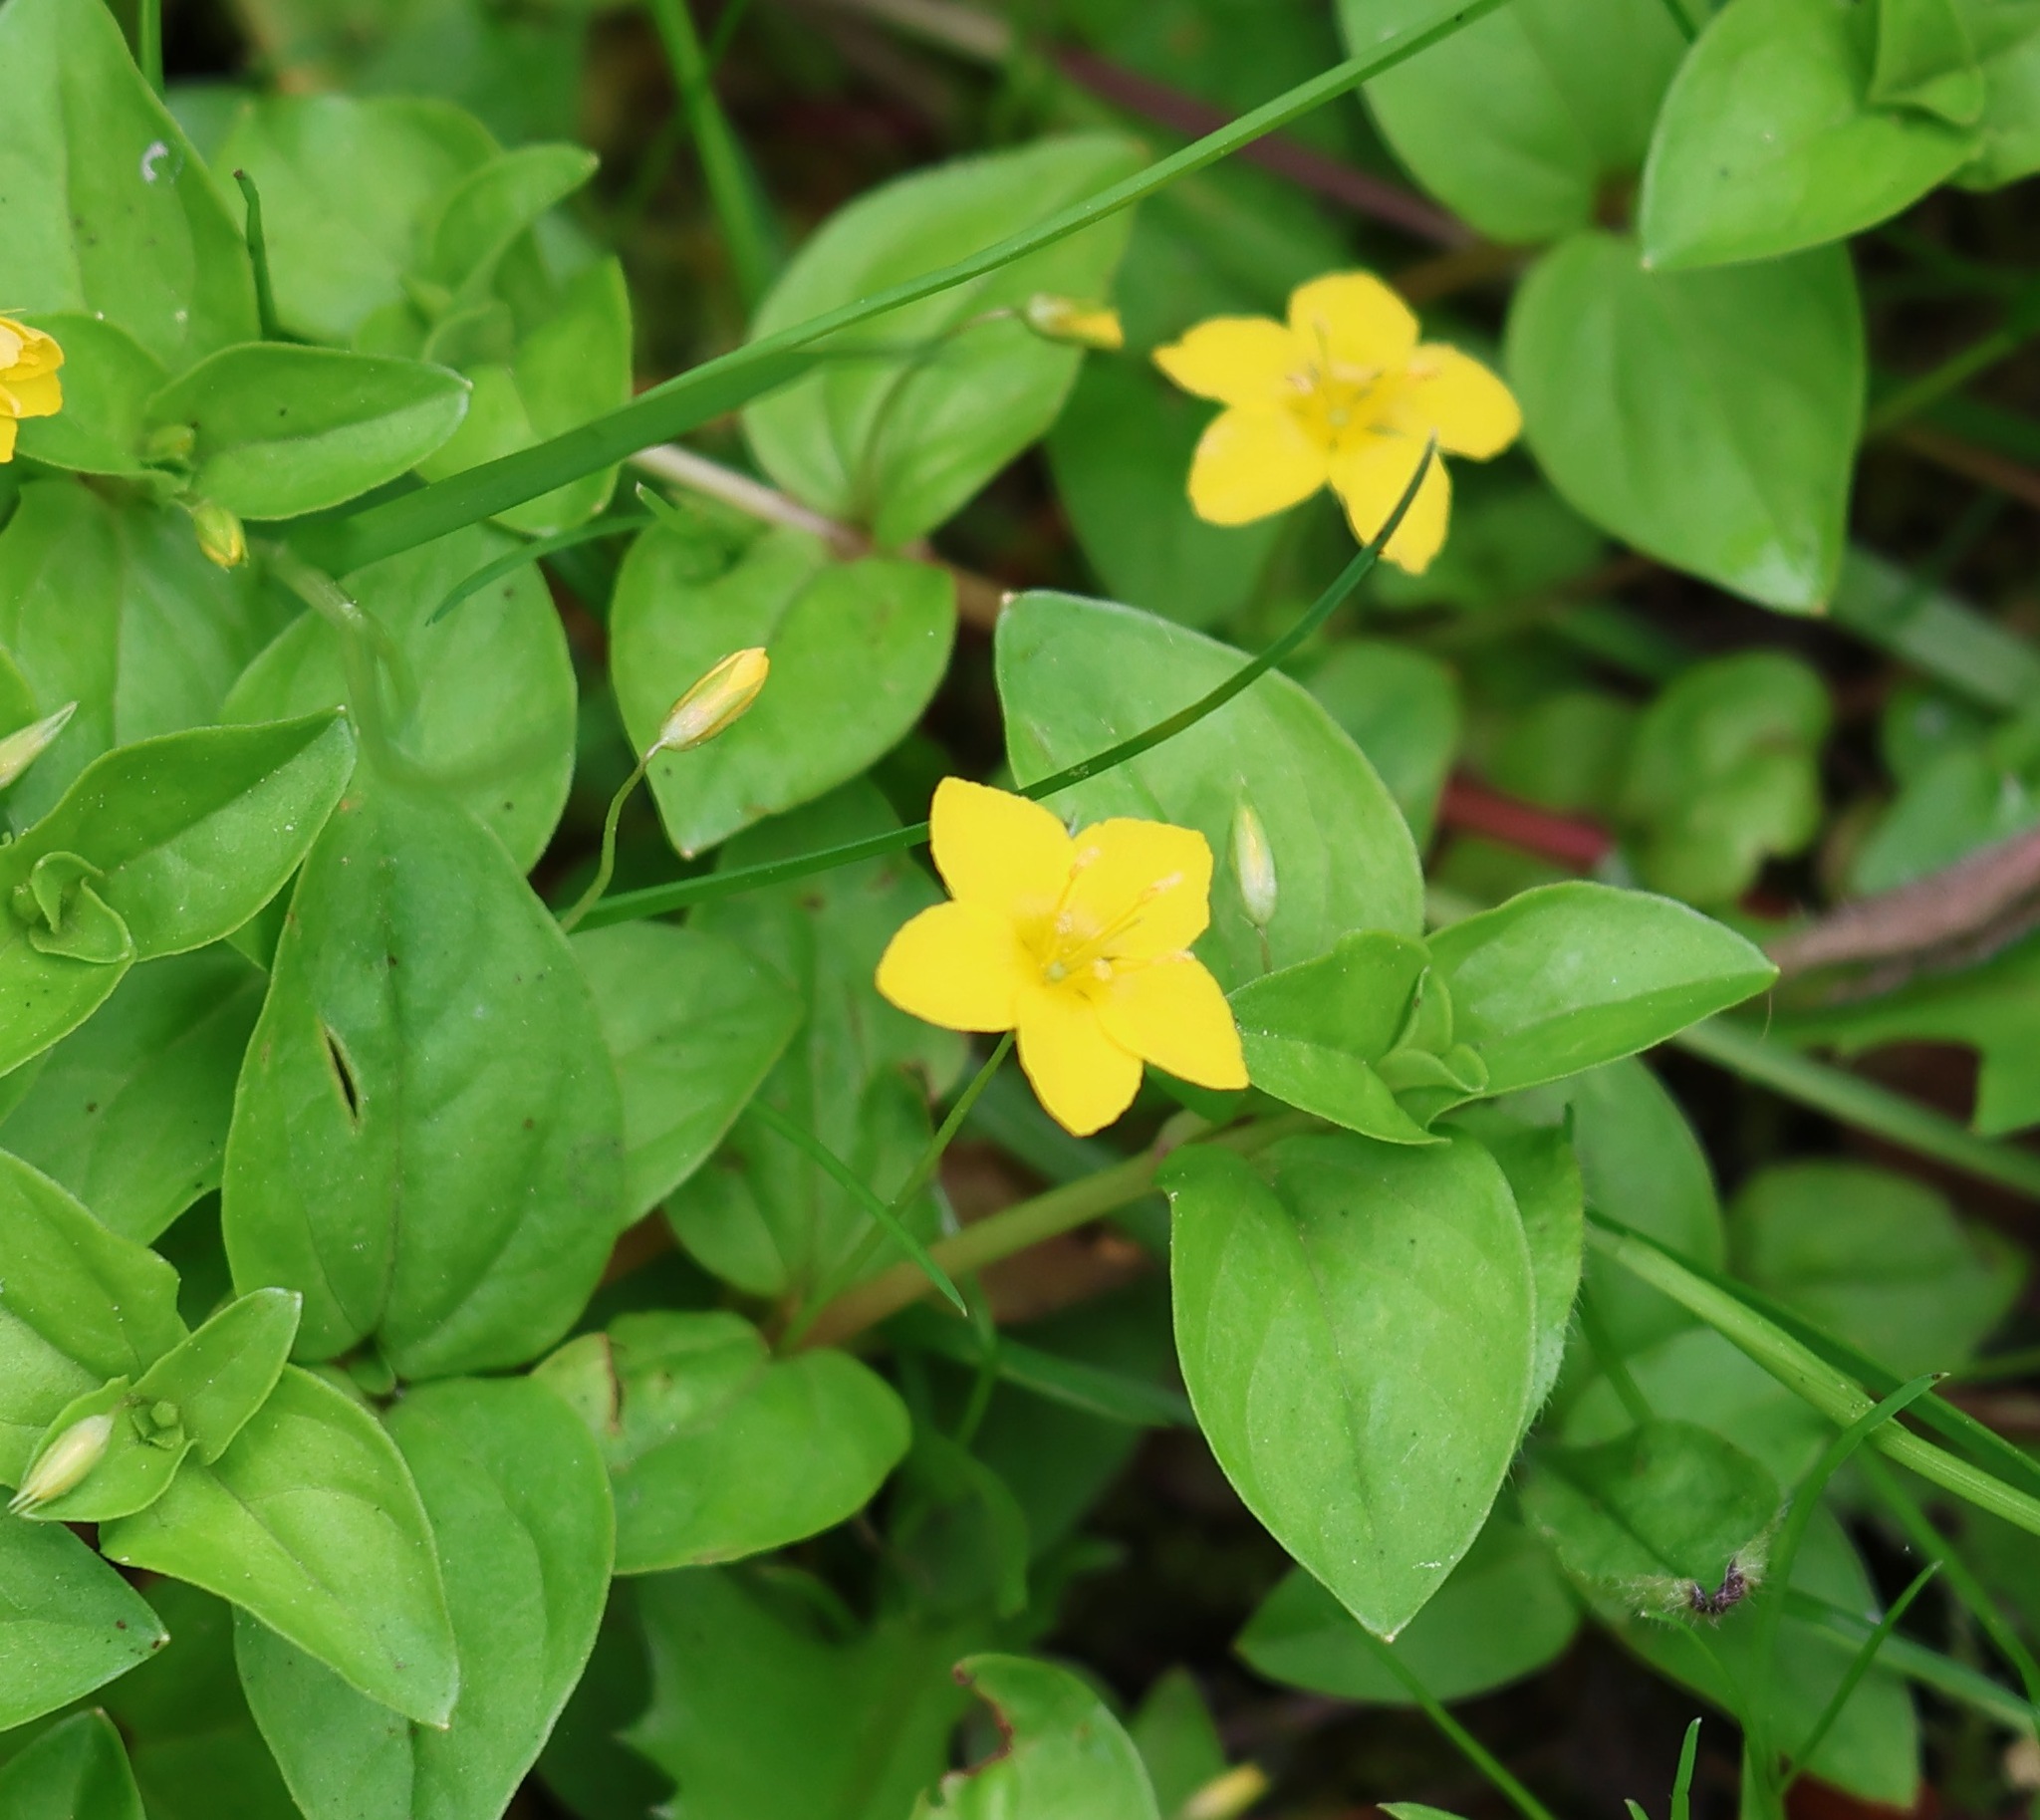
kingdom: Plantae
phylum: Tracheophyta
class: Magnoliopsida
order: Ericales
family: Primulaceae
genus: Lysimachia
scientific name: Lysimachia nemorum
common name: Yellow pimpernel
